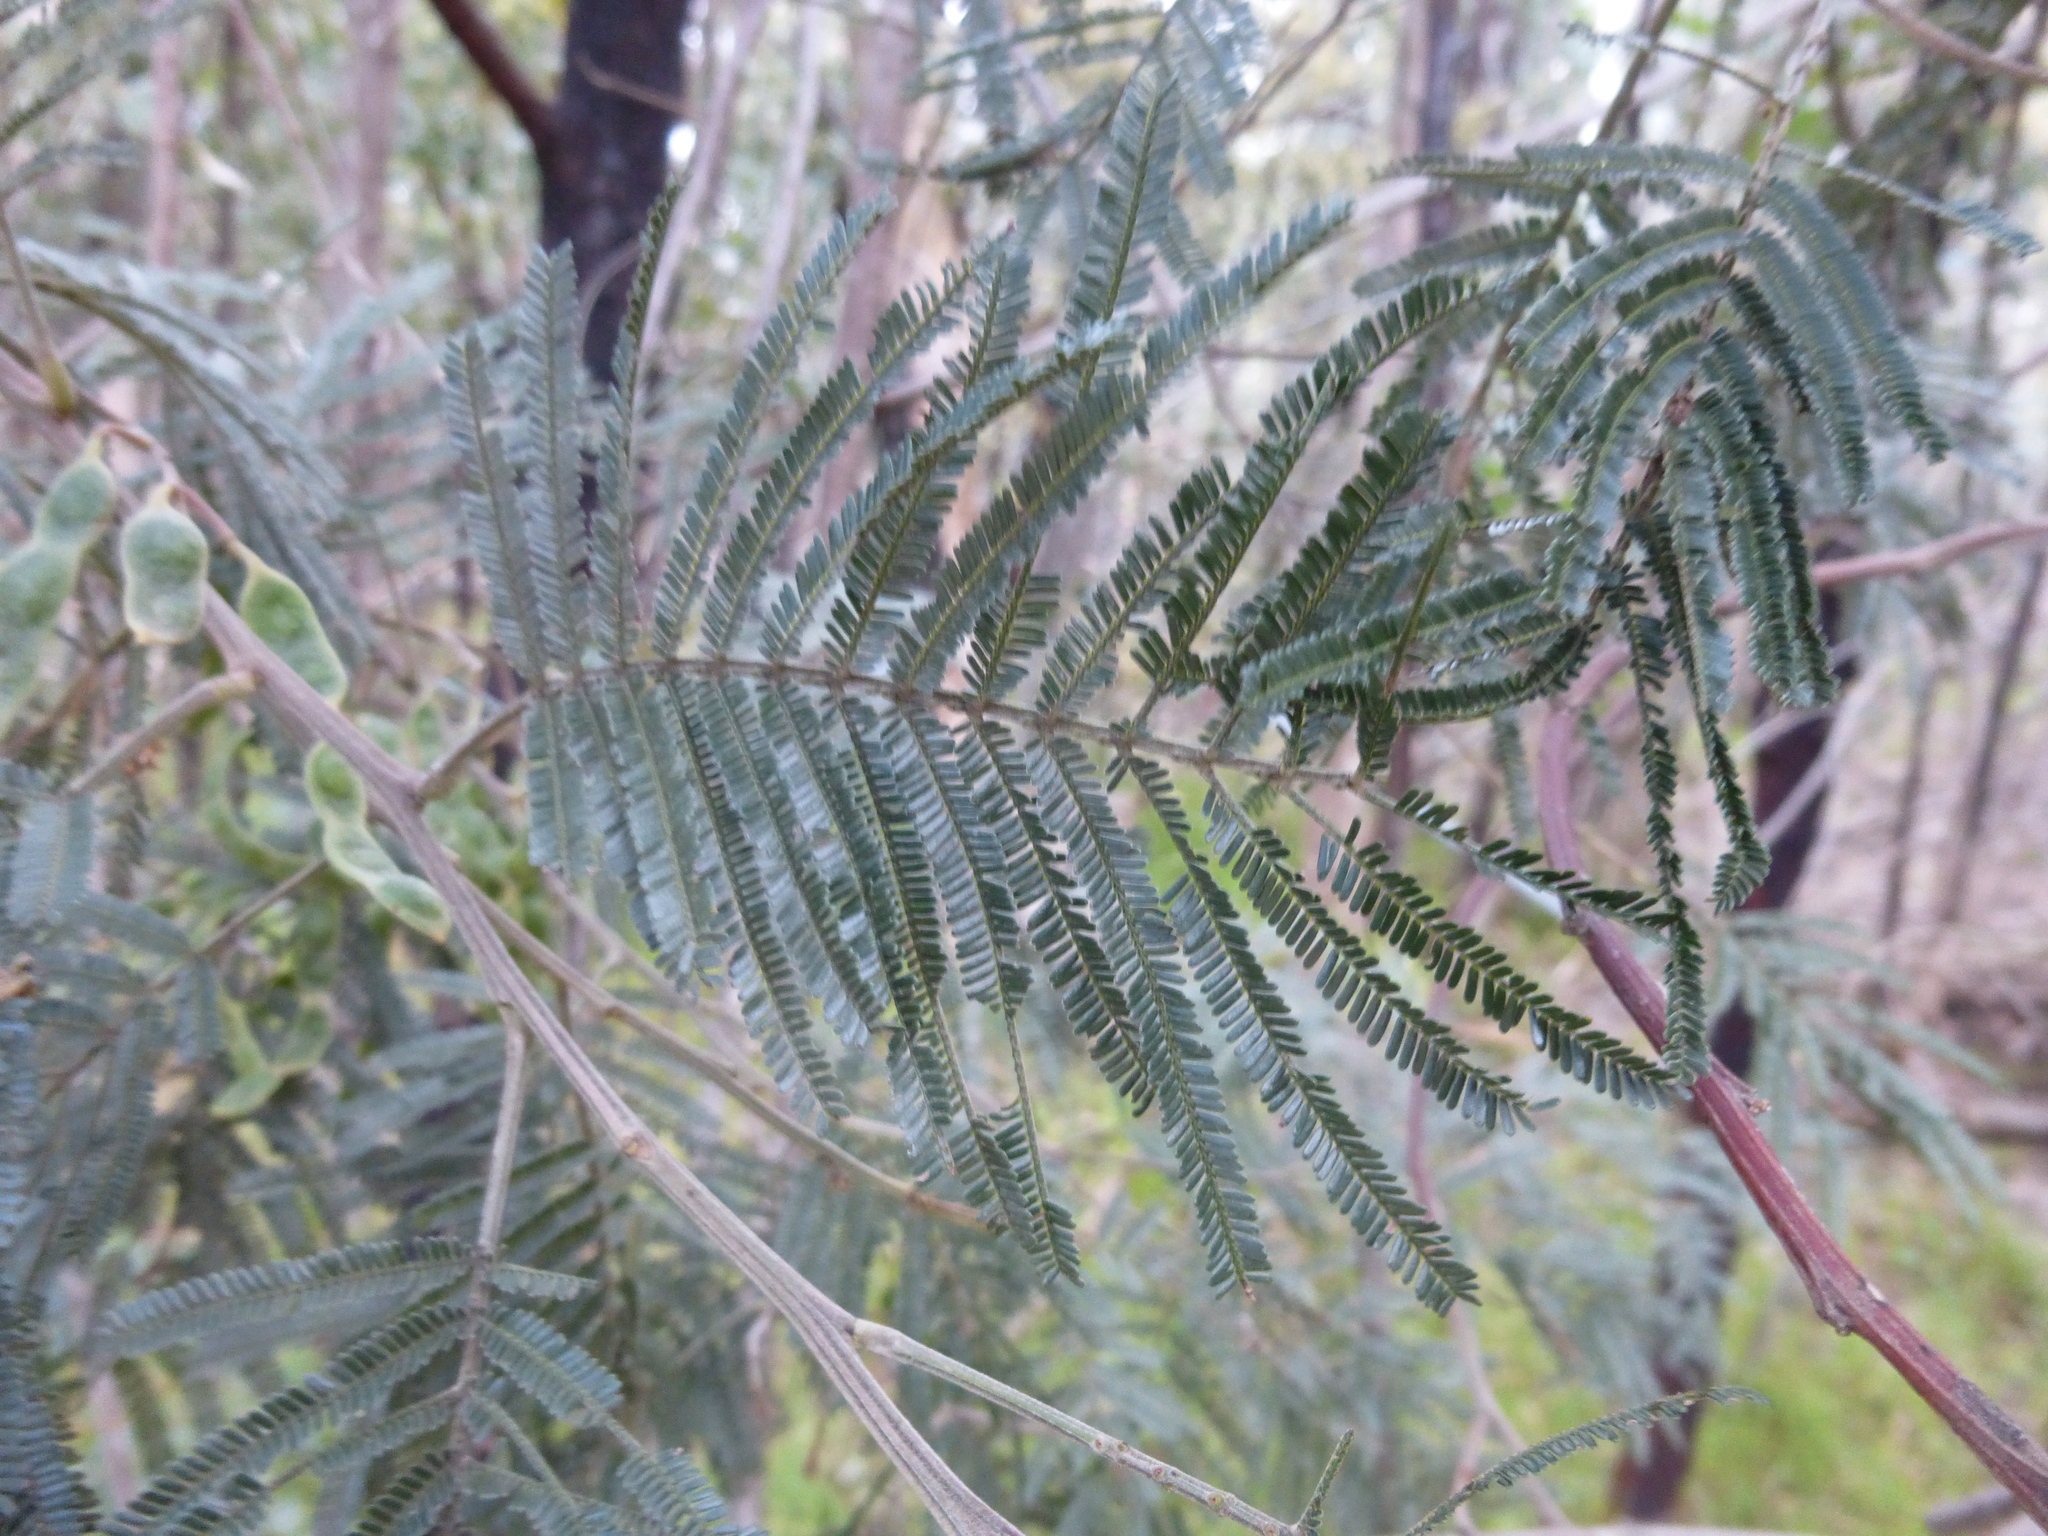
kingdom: Plantae
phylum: Tracheophyta
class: Magnoliopsida
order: Fabales
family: Fabaceae
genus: Acacia
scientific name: Acacia mearnsii
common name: Black wattle
